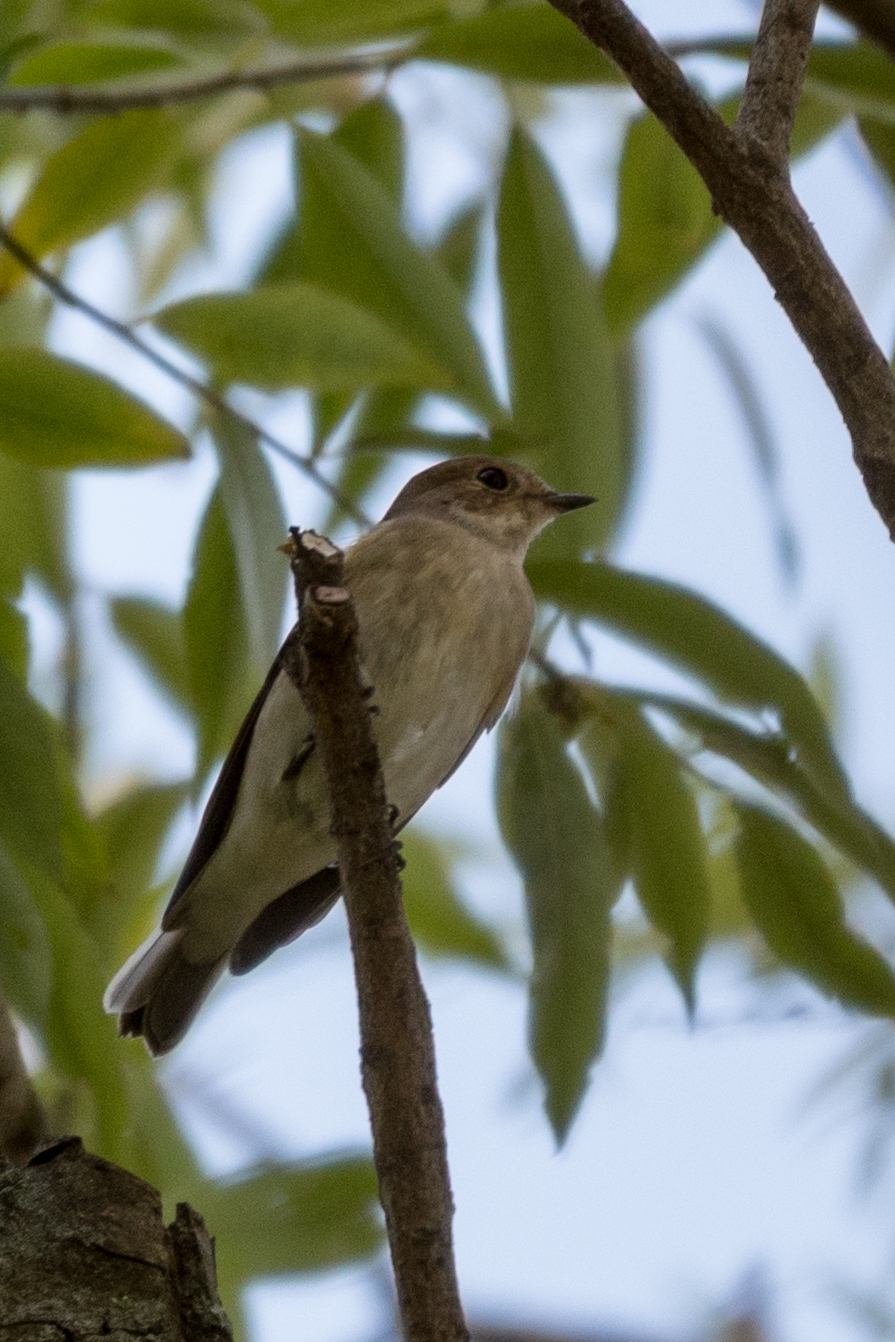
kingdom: Animalia
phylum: Chordata
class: Aves
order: Passeriformes
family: Muscicapidae
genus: Ficedula
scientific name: Ficedula hypoleuca
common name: European pied flycatcher
